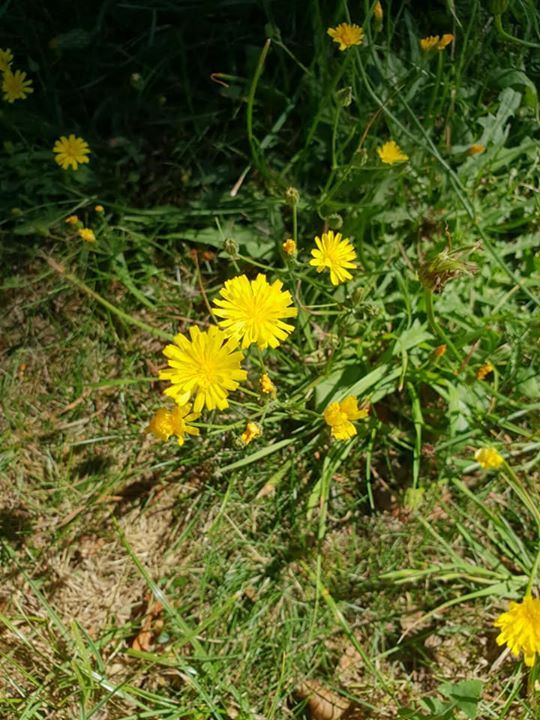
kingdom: Plantae
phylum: Tracheophyta
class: Magnoliopsida
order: Asterales
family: Asteraceae
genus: Crepis
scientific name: Crepis capillaris
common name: Smooth hawksbeard
